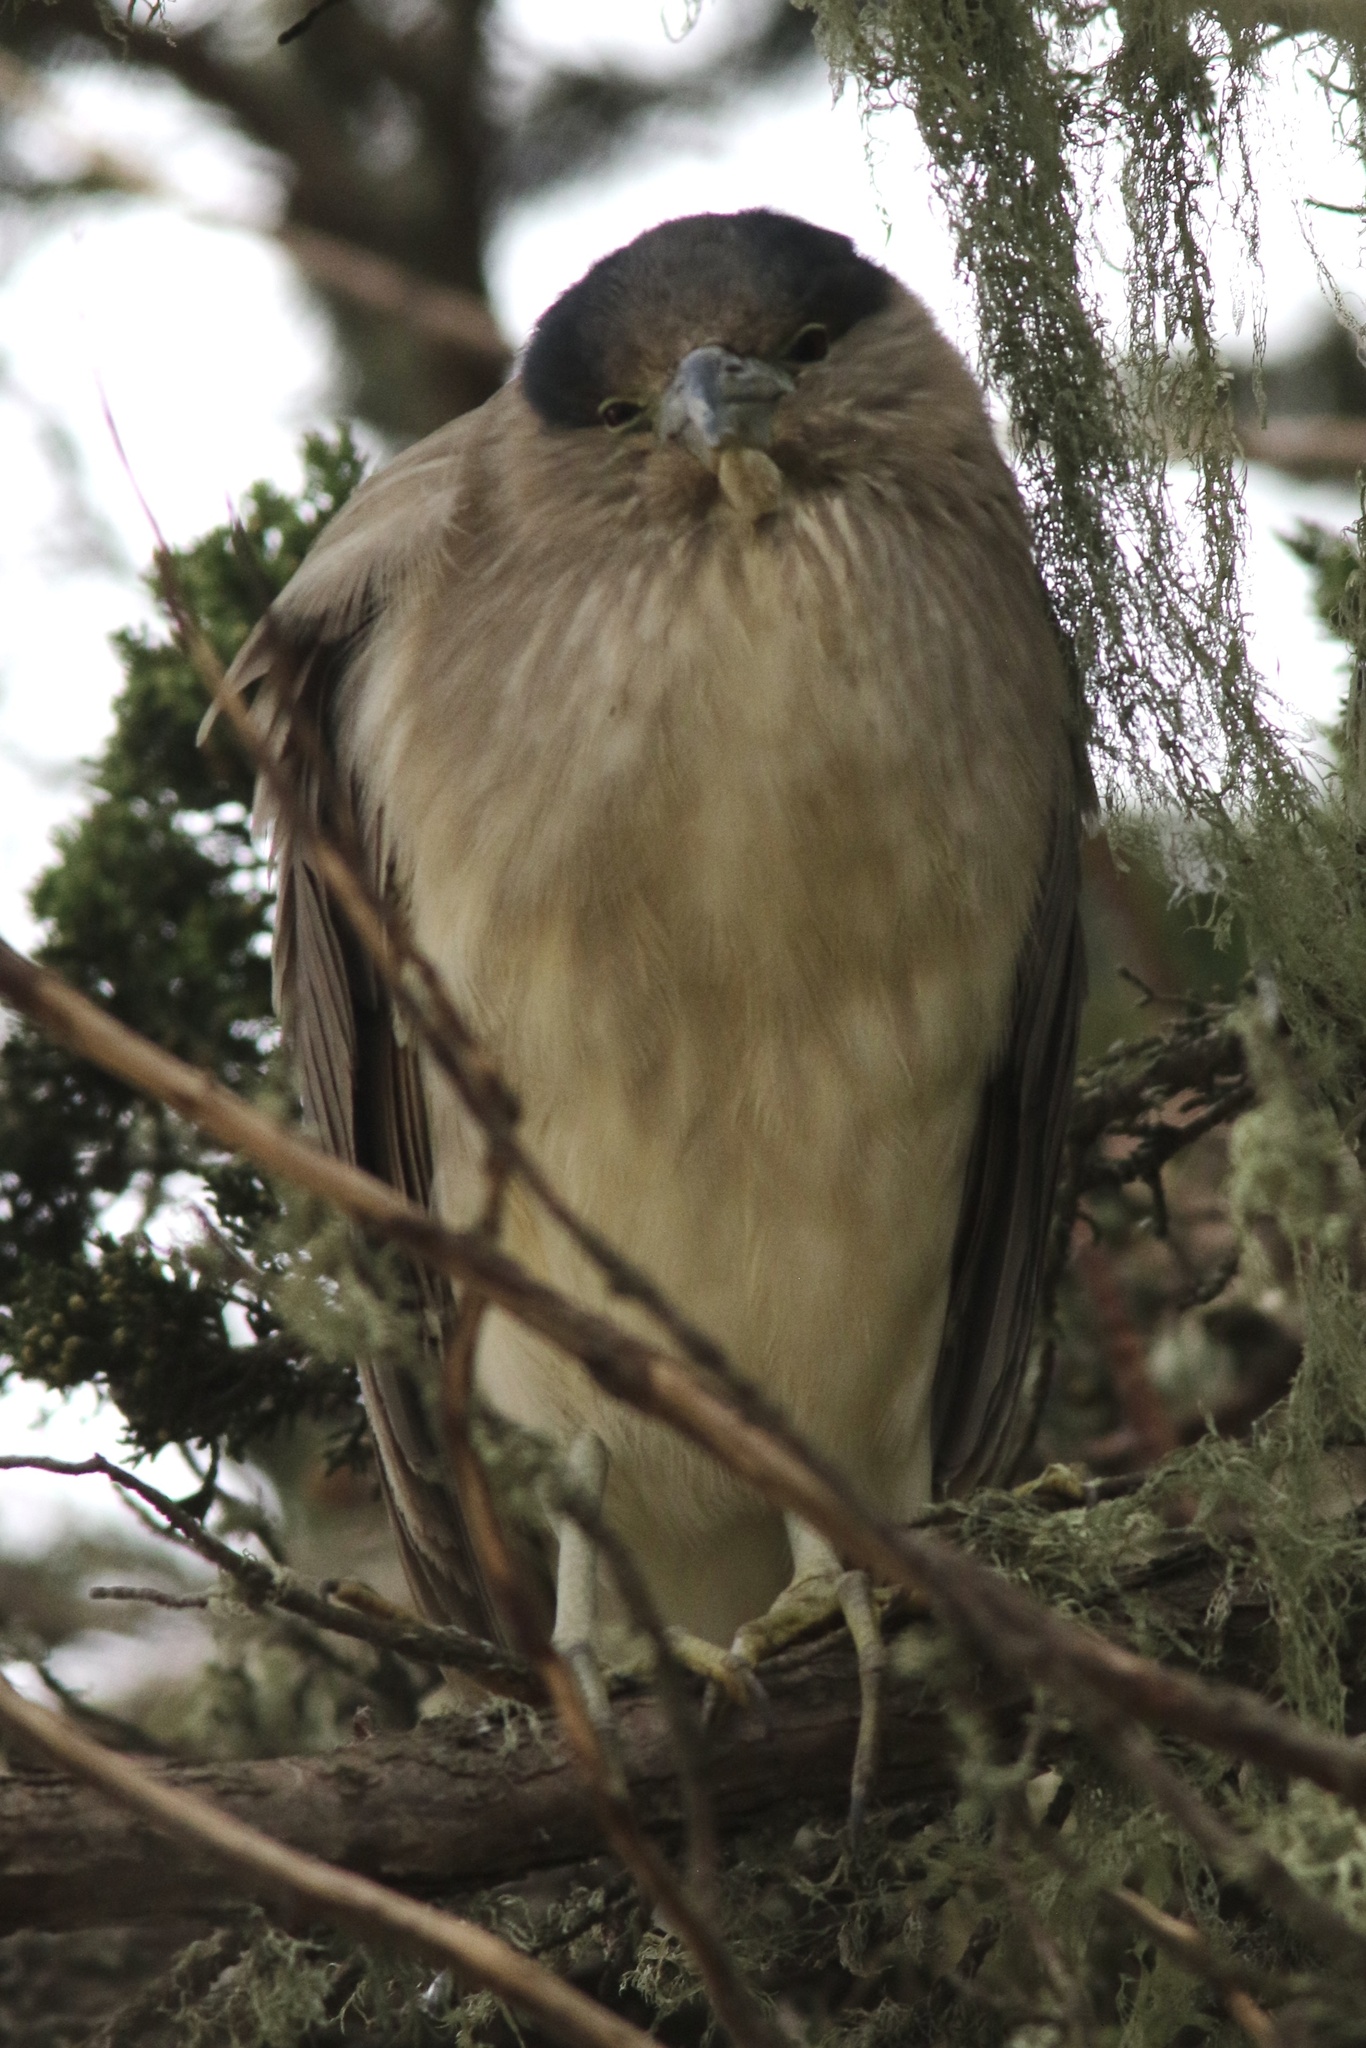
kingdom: Animalia
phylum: Chordata
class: Aves
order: Pelecaniformes
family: Ardeidae
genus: Nycticorax
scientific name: Nycticorax nycticorax
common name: Black-crowned night heron
